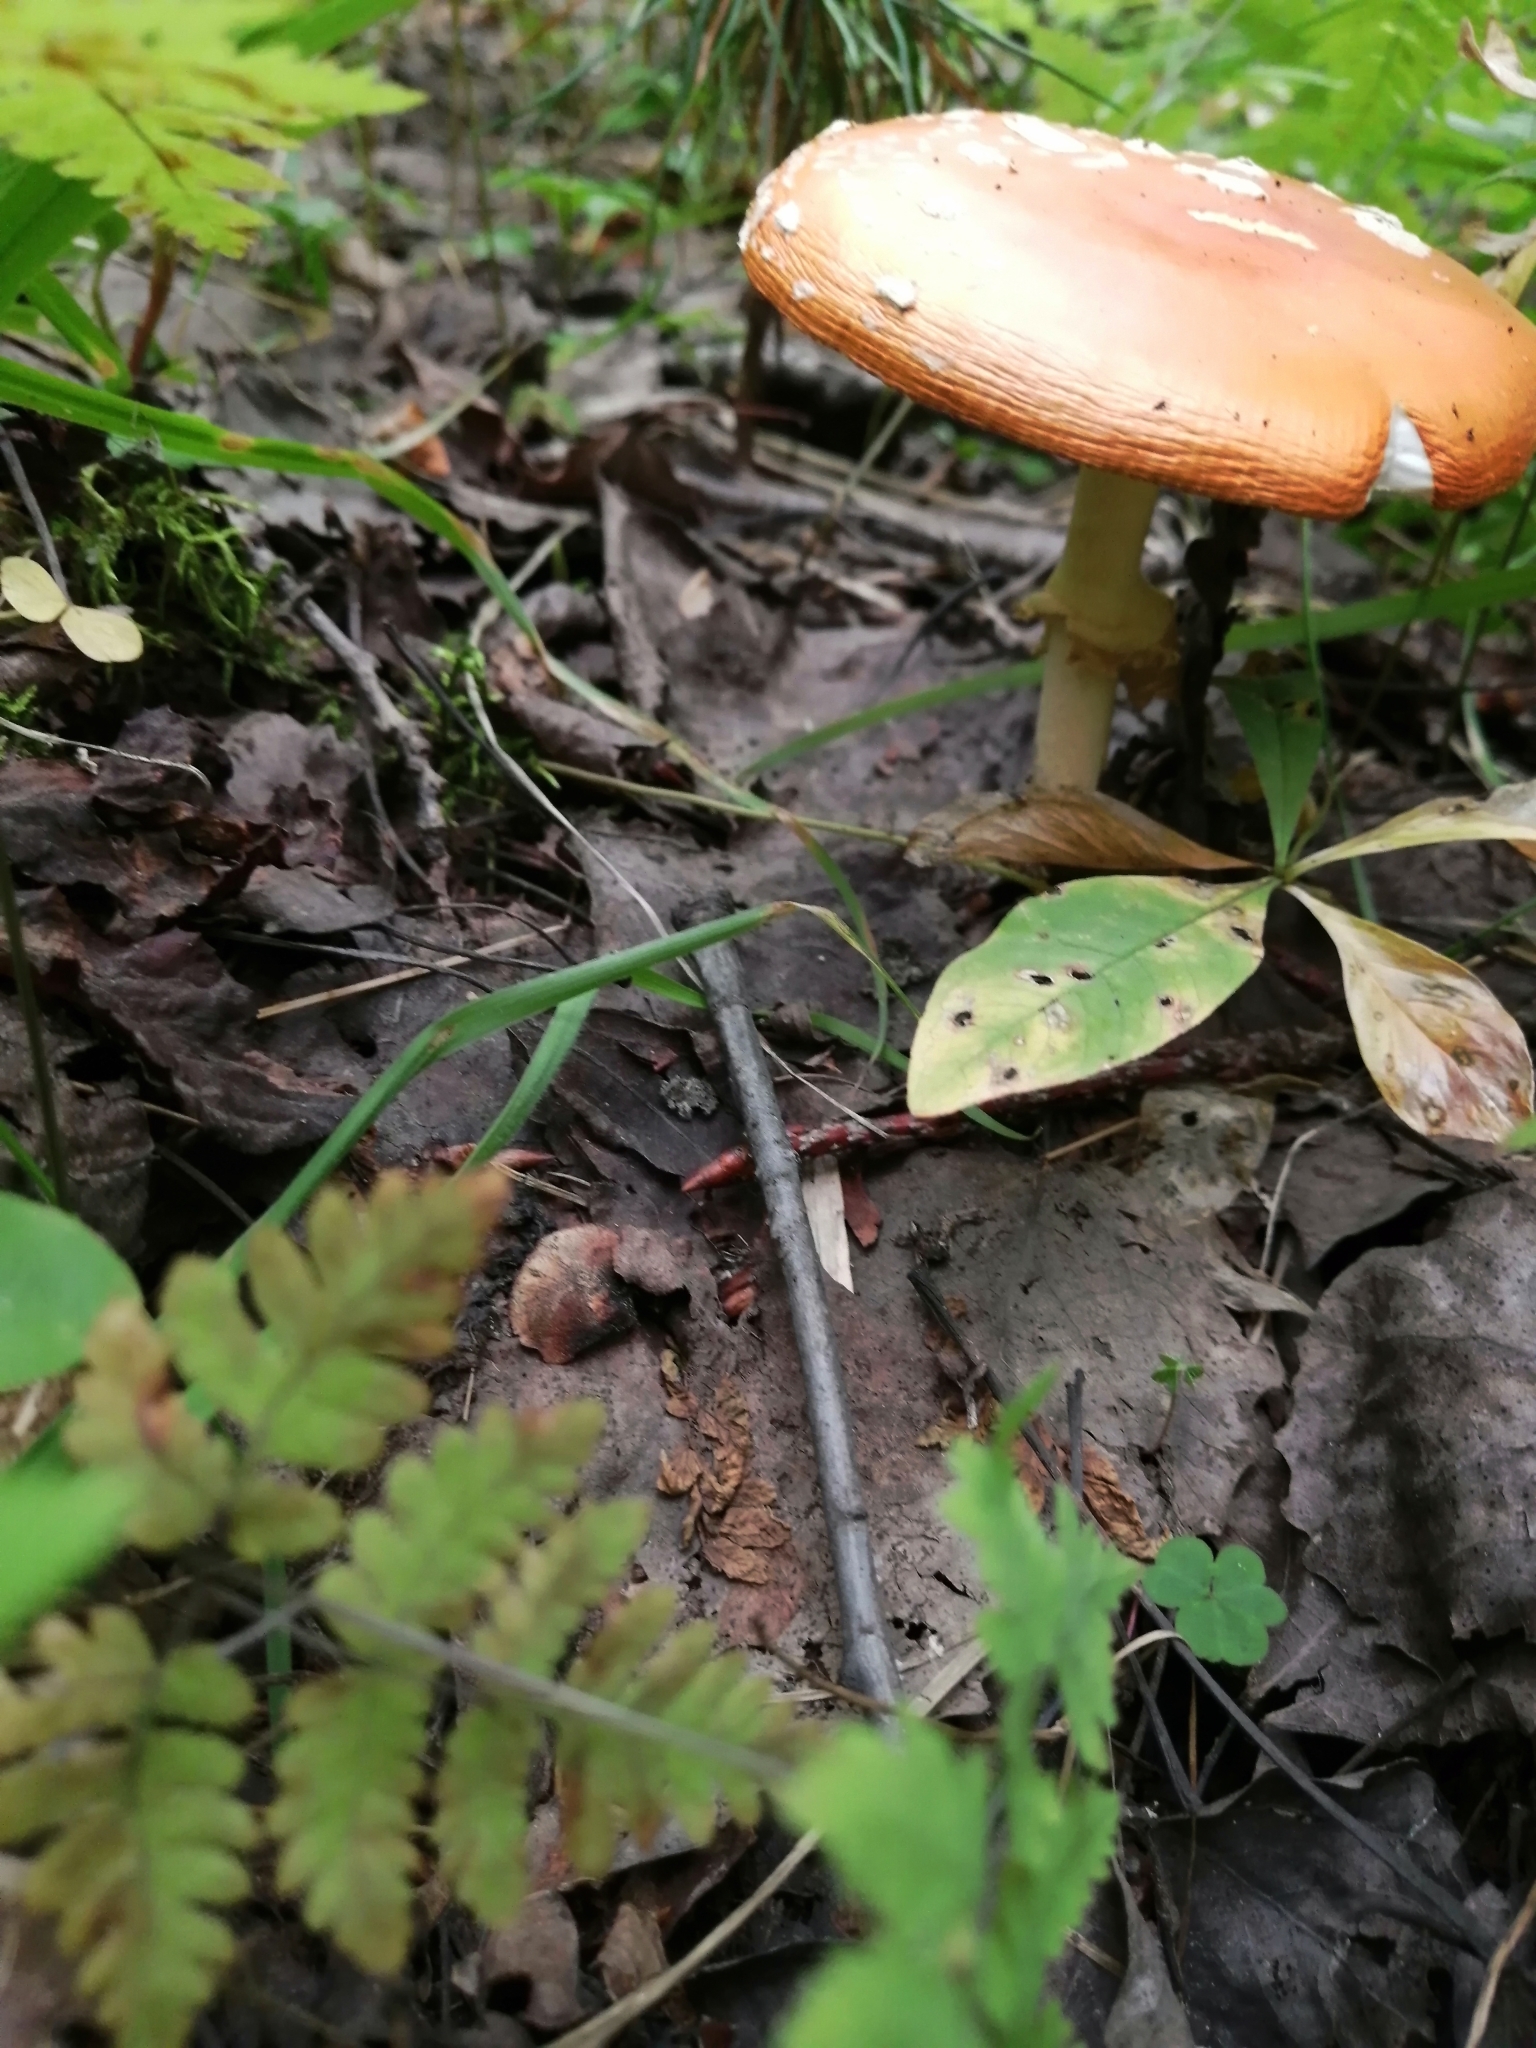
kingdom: Fungi
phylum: Basidiomycota
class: Agaricomycetes
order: Agaricales
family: Amanitaceae
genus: Amanita
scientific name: Amanita muscaria
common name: Fly agaric
